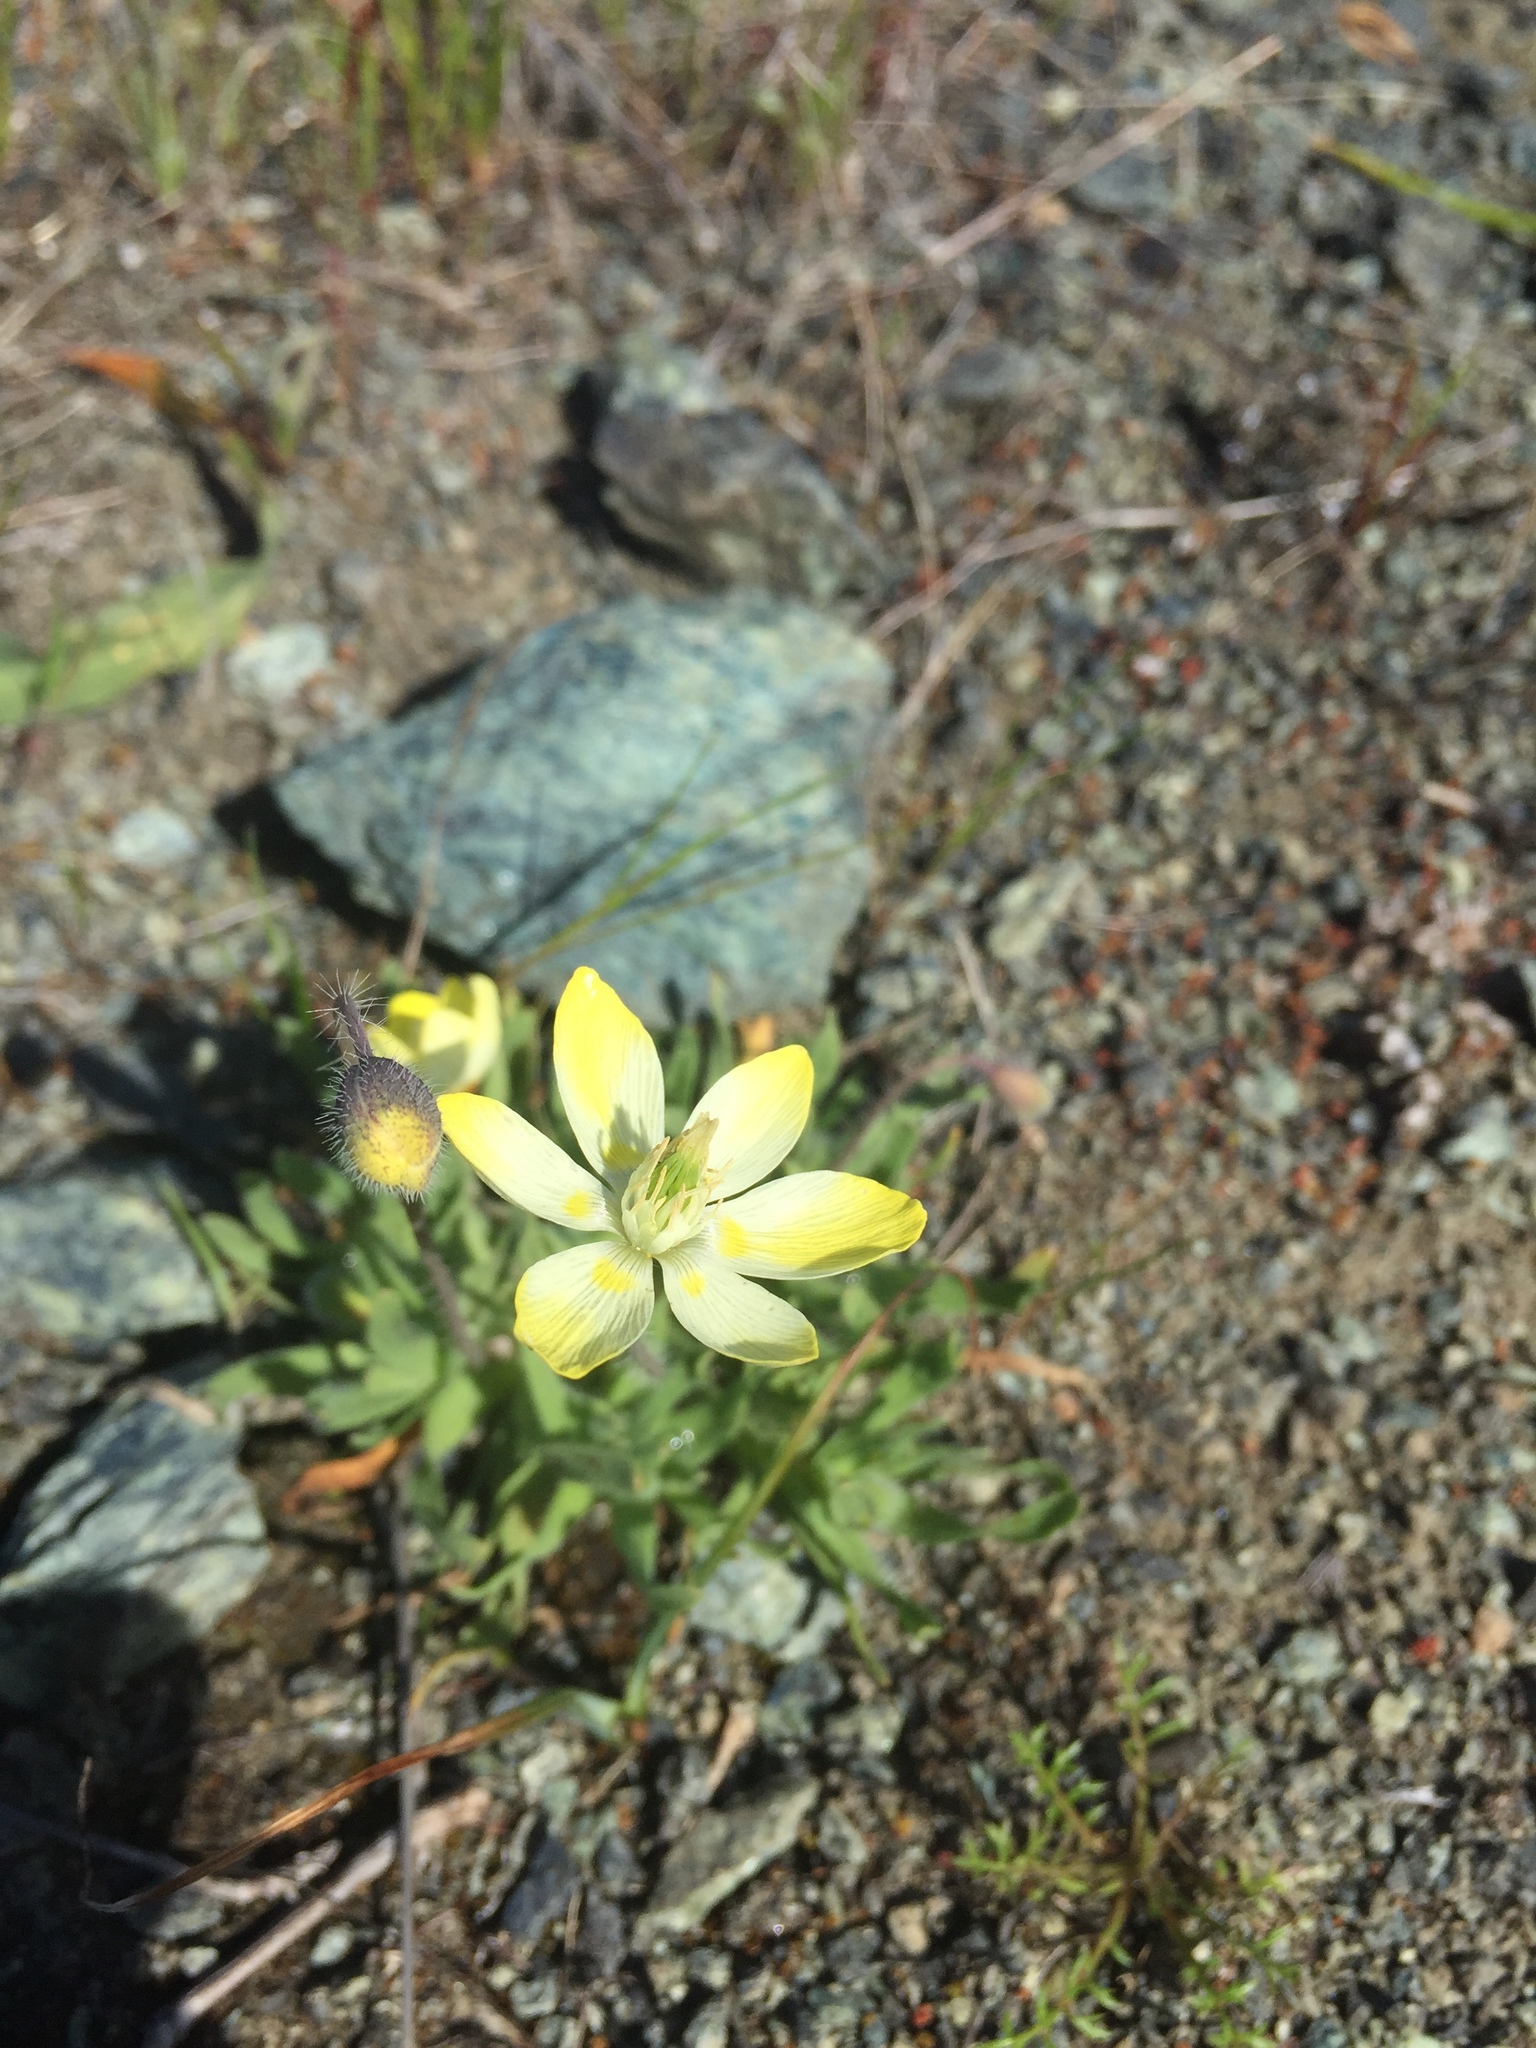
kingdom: Plantae
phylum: Tracheophyta
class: Magnoliopsida
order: Ranunculales
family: Papaveraceae
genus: Platystemon
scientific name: Platystemon californicus
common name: Cream-cups
